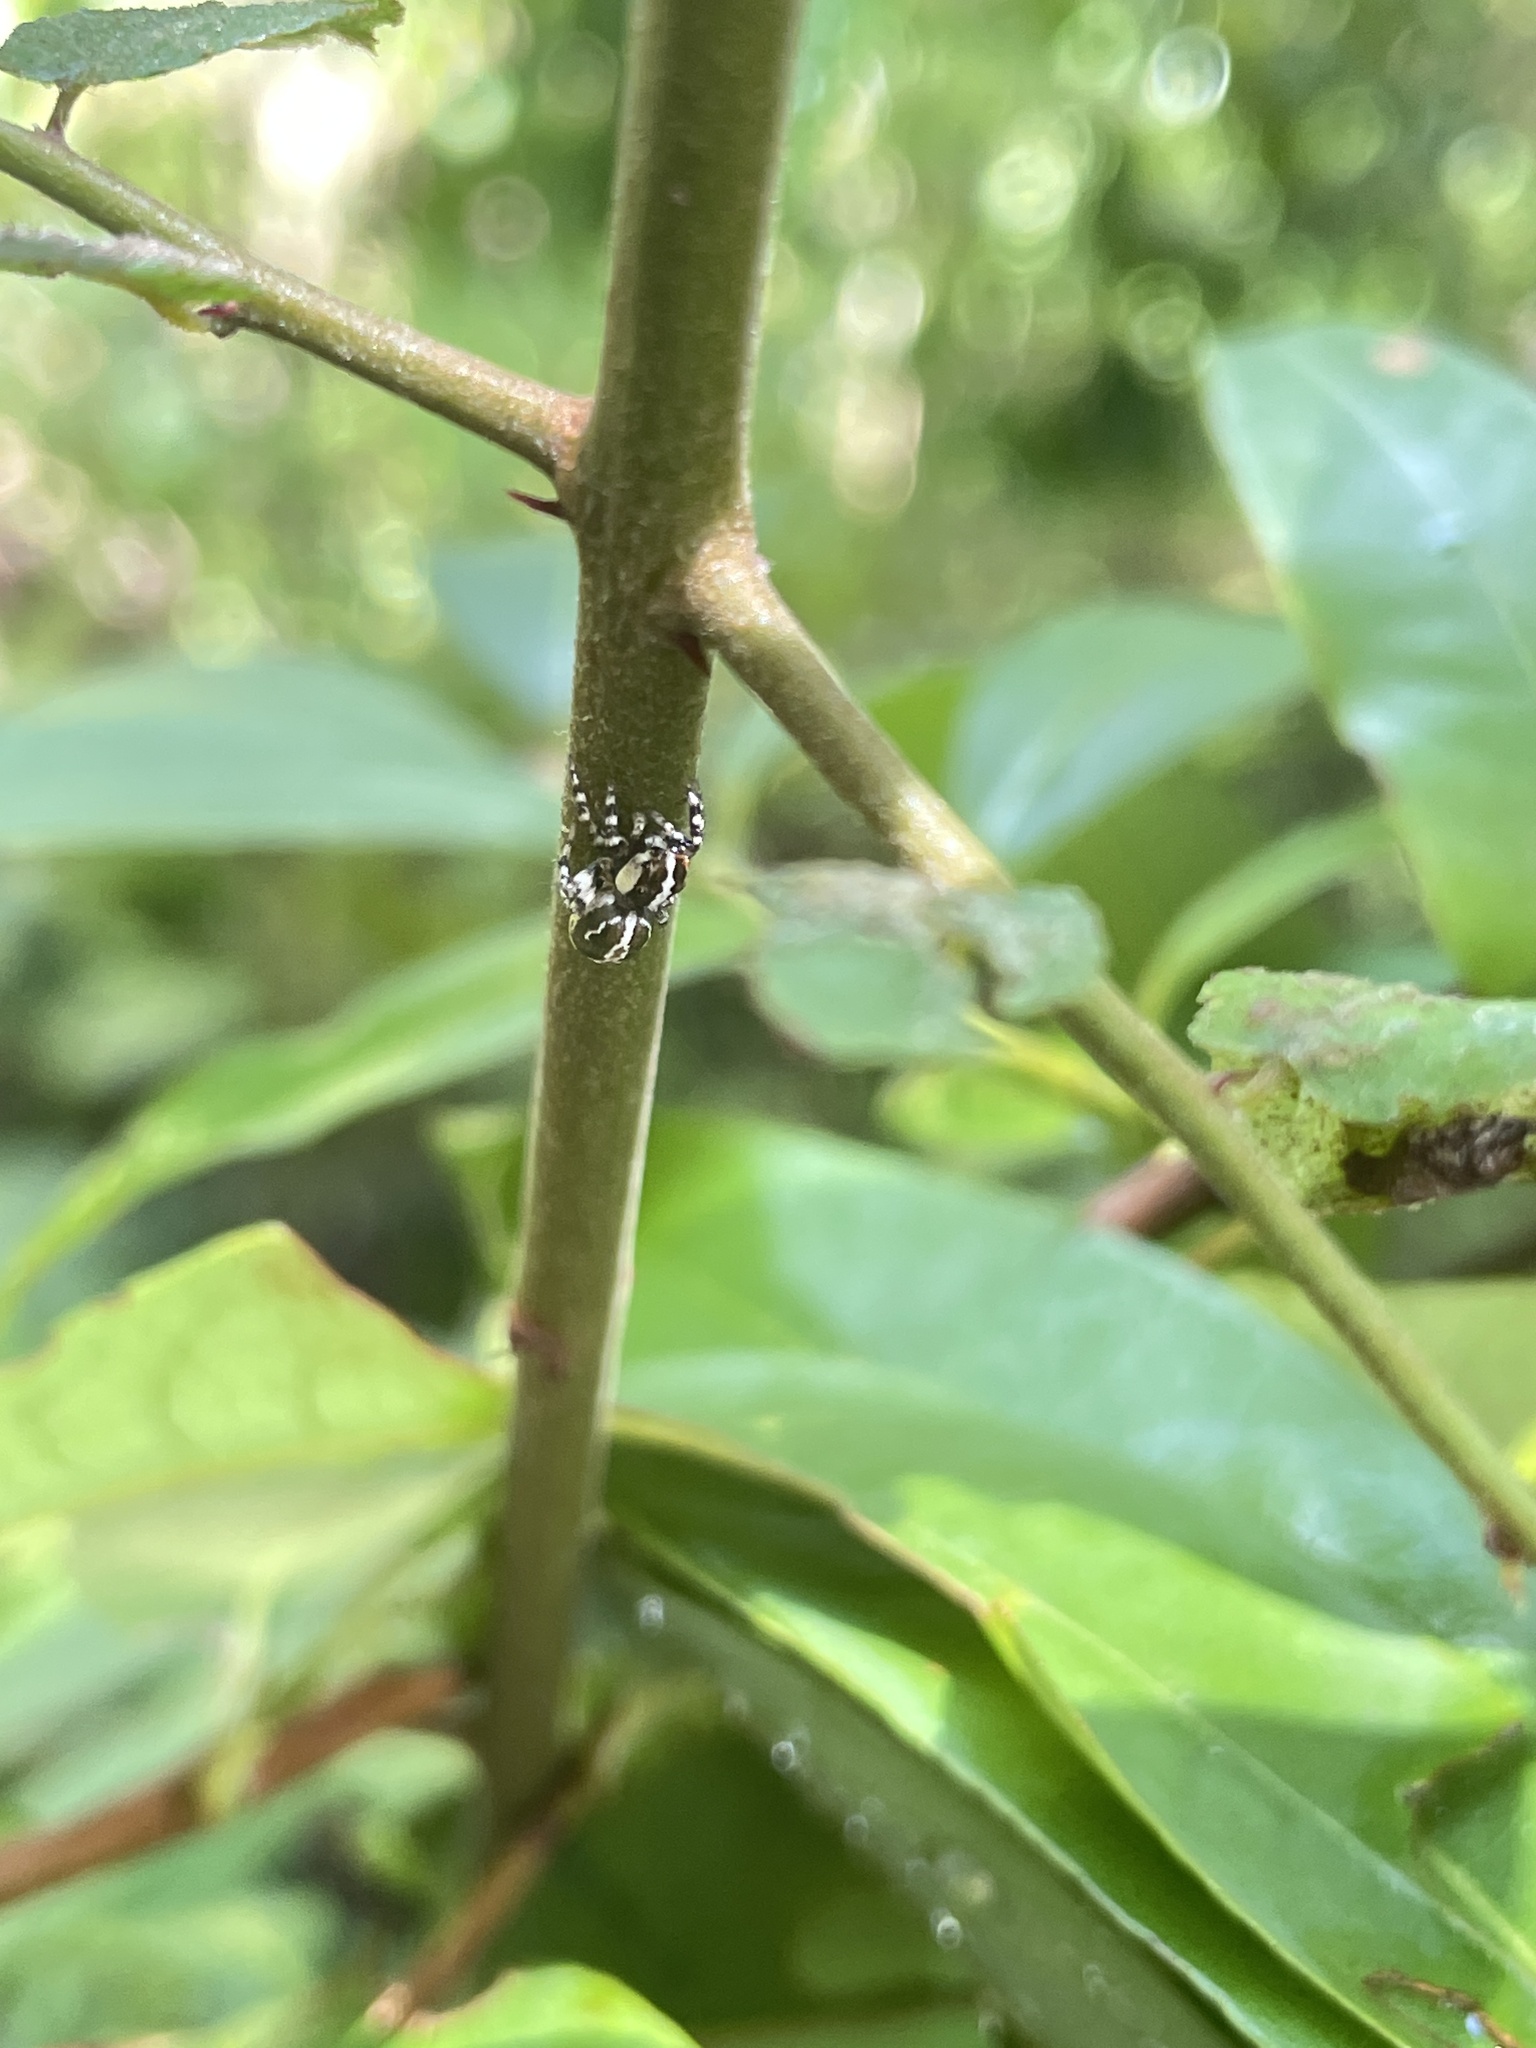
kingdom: Animalia
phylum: Arthropoda
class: Arachnida
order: Araneae
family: Salticidae
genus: Thyene
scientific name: Thyene orientalis
